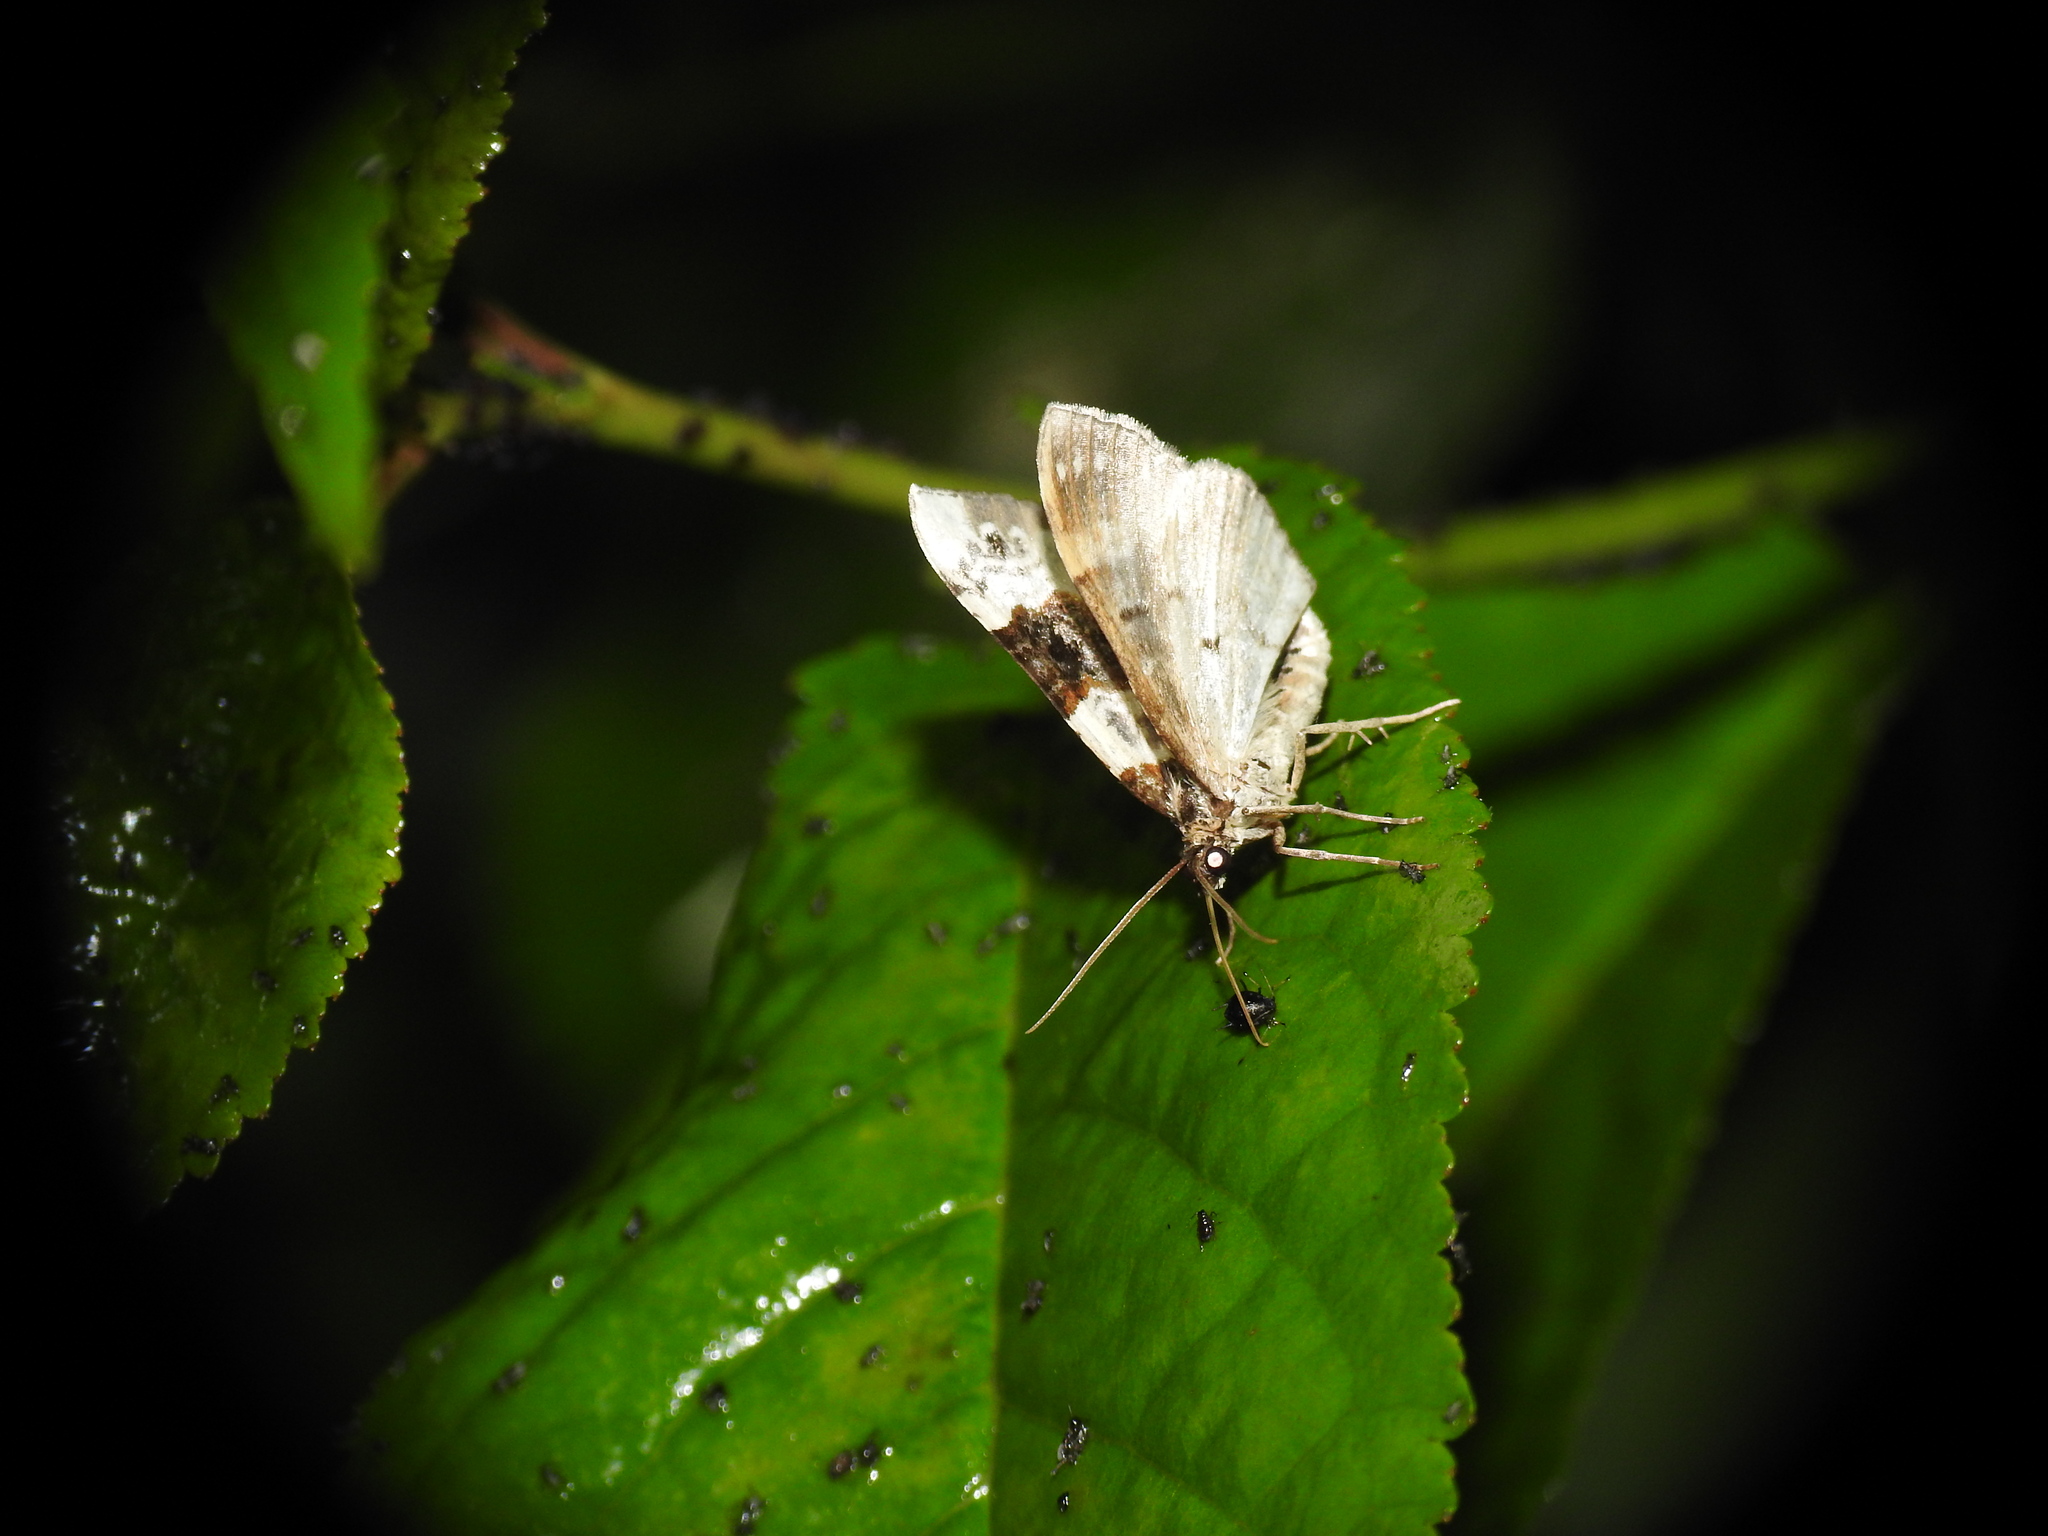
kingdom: Animalia
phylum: Arthropoda
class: Insecta
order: Lepidoptera
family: Geometridae
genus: Cosmorhoe
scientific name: Cosmorhoe ocellata
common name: Purple bar
